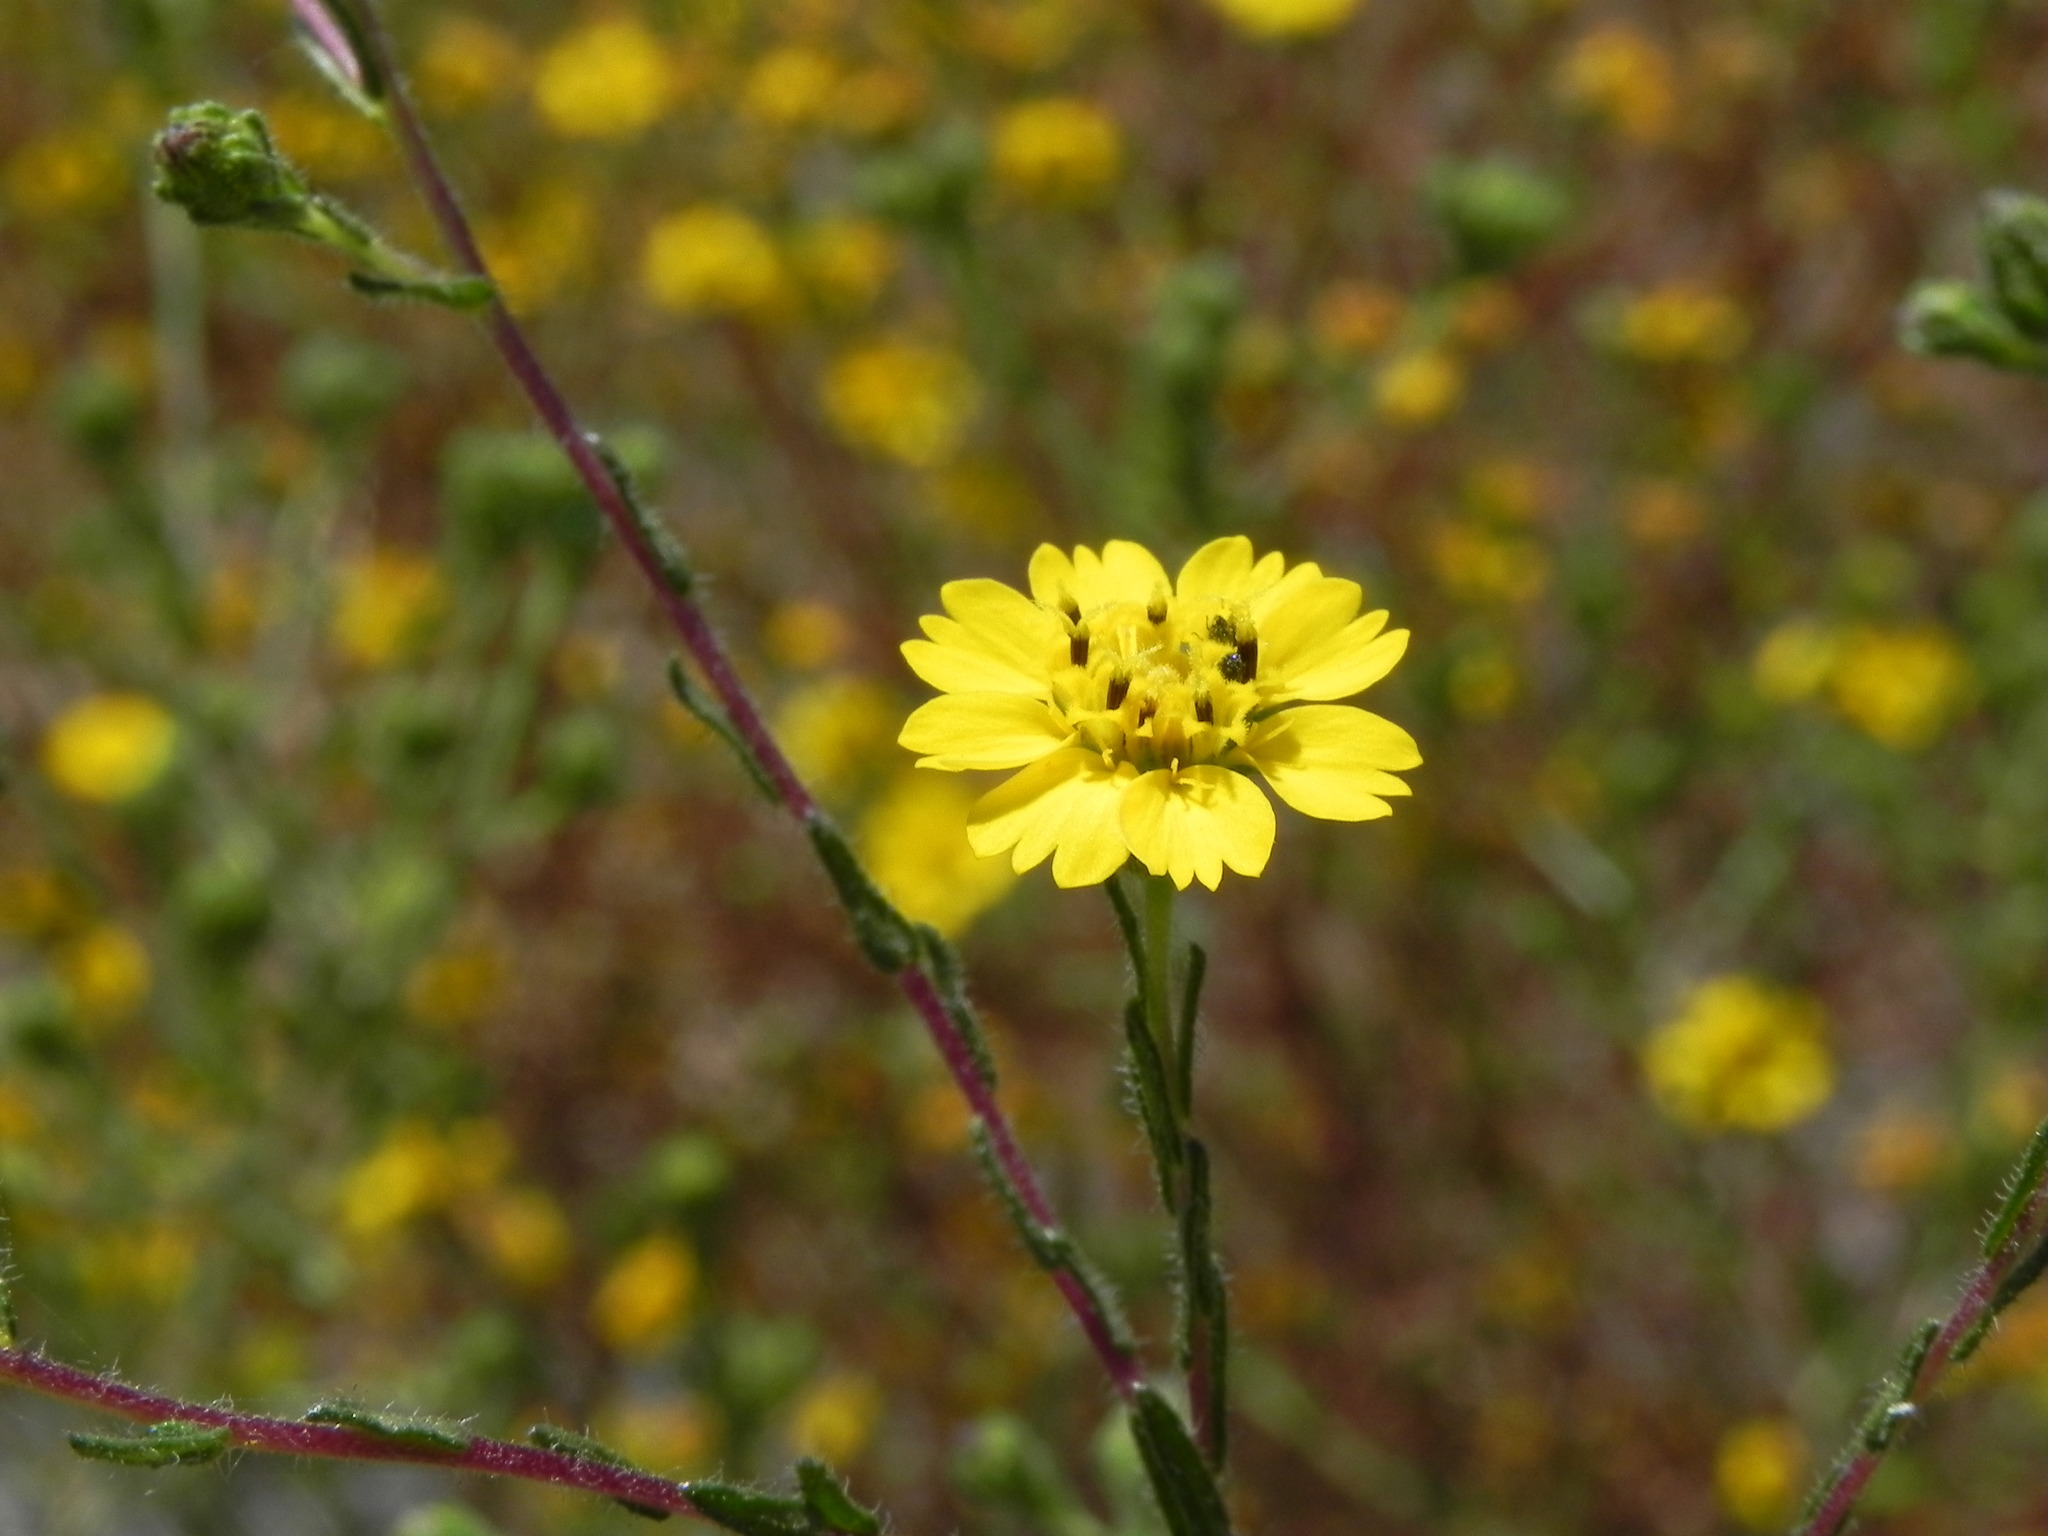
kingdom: Plantae
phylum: Tracheophyta
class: Magnoliopsida
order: Asterales
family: Asteraceae
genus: Deinandra
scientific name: Deinandra conjugens
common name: Otay tarplant
